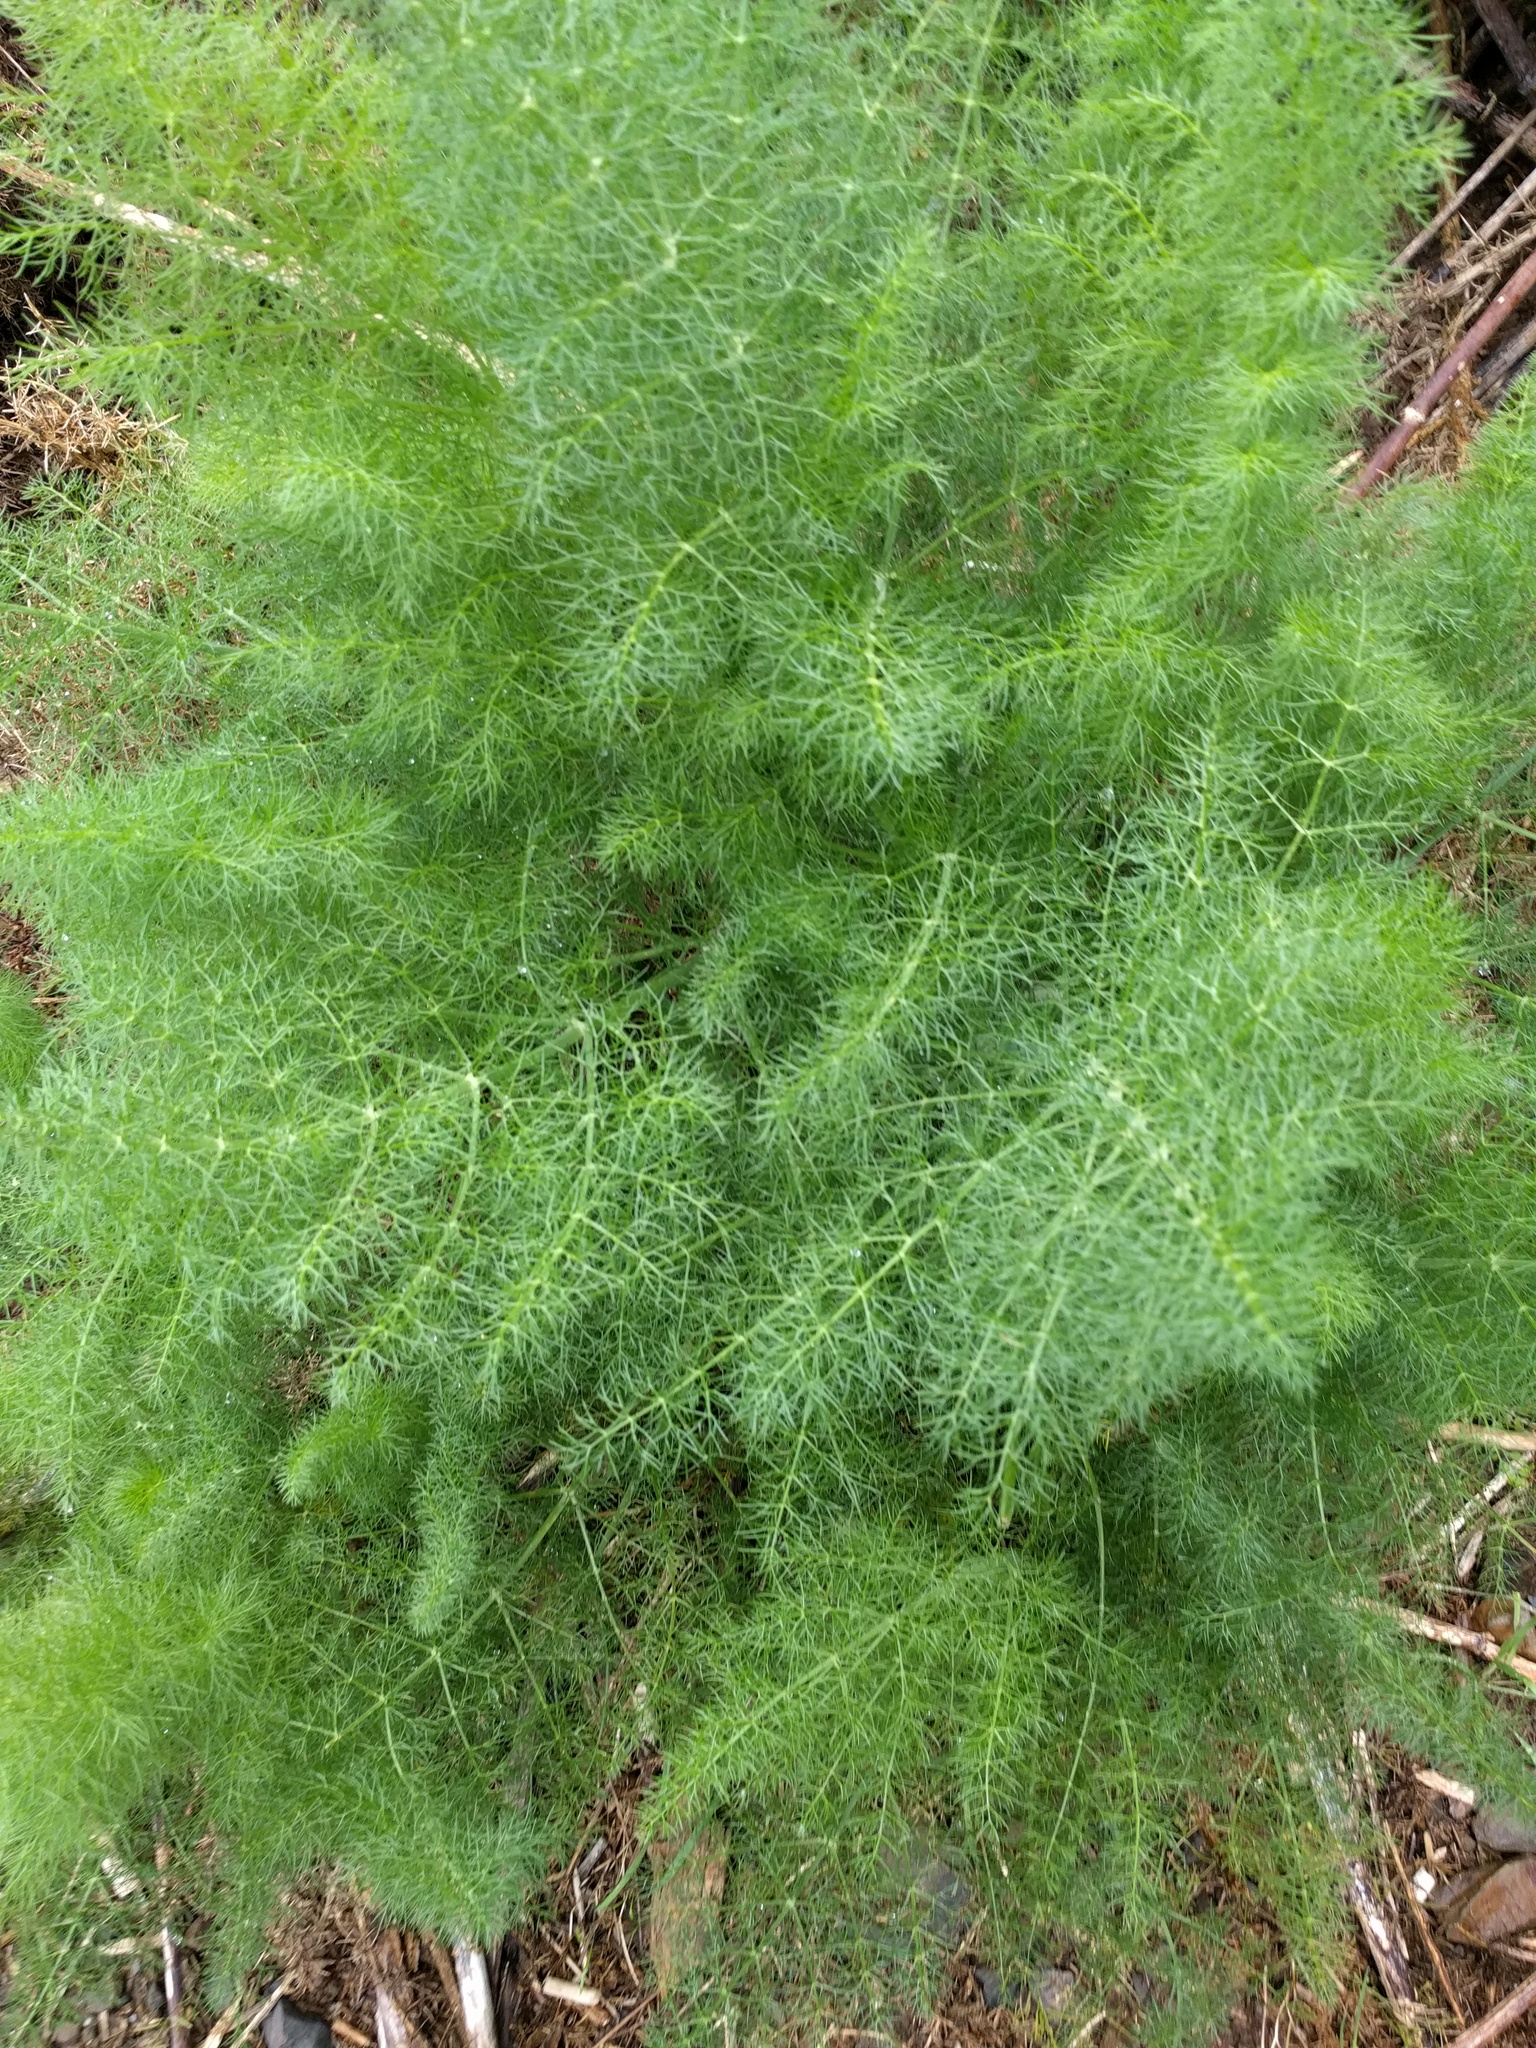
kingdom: Plantae
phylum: Tracheophyta
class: Magnoliopsida
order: Apiales
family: Apiaceae
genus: Foeniculum
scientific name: Foeniculum vulgare
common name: Fennel
